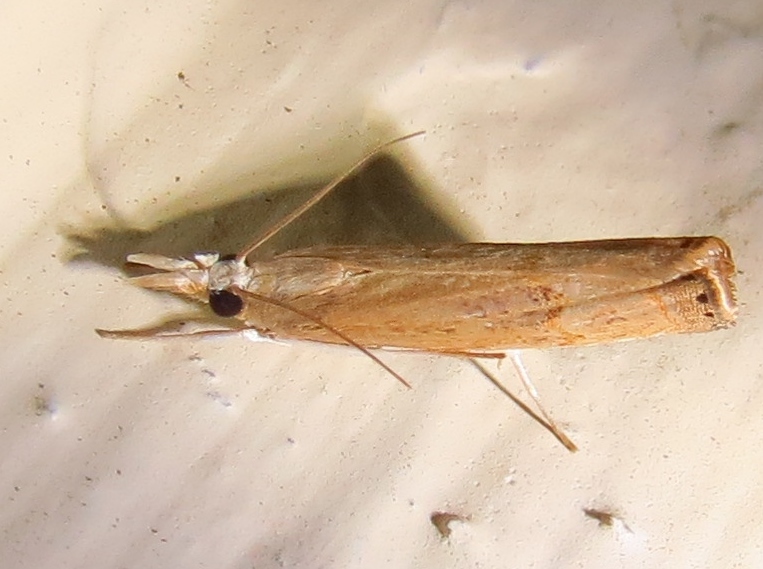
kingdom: Animalia
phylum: Arthropoda
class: Insecta
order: Lepidoptera
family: Crambidae
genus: Parapediasia
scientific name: Parapediasia decorellus
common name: Graceful grass-veneer
